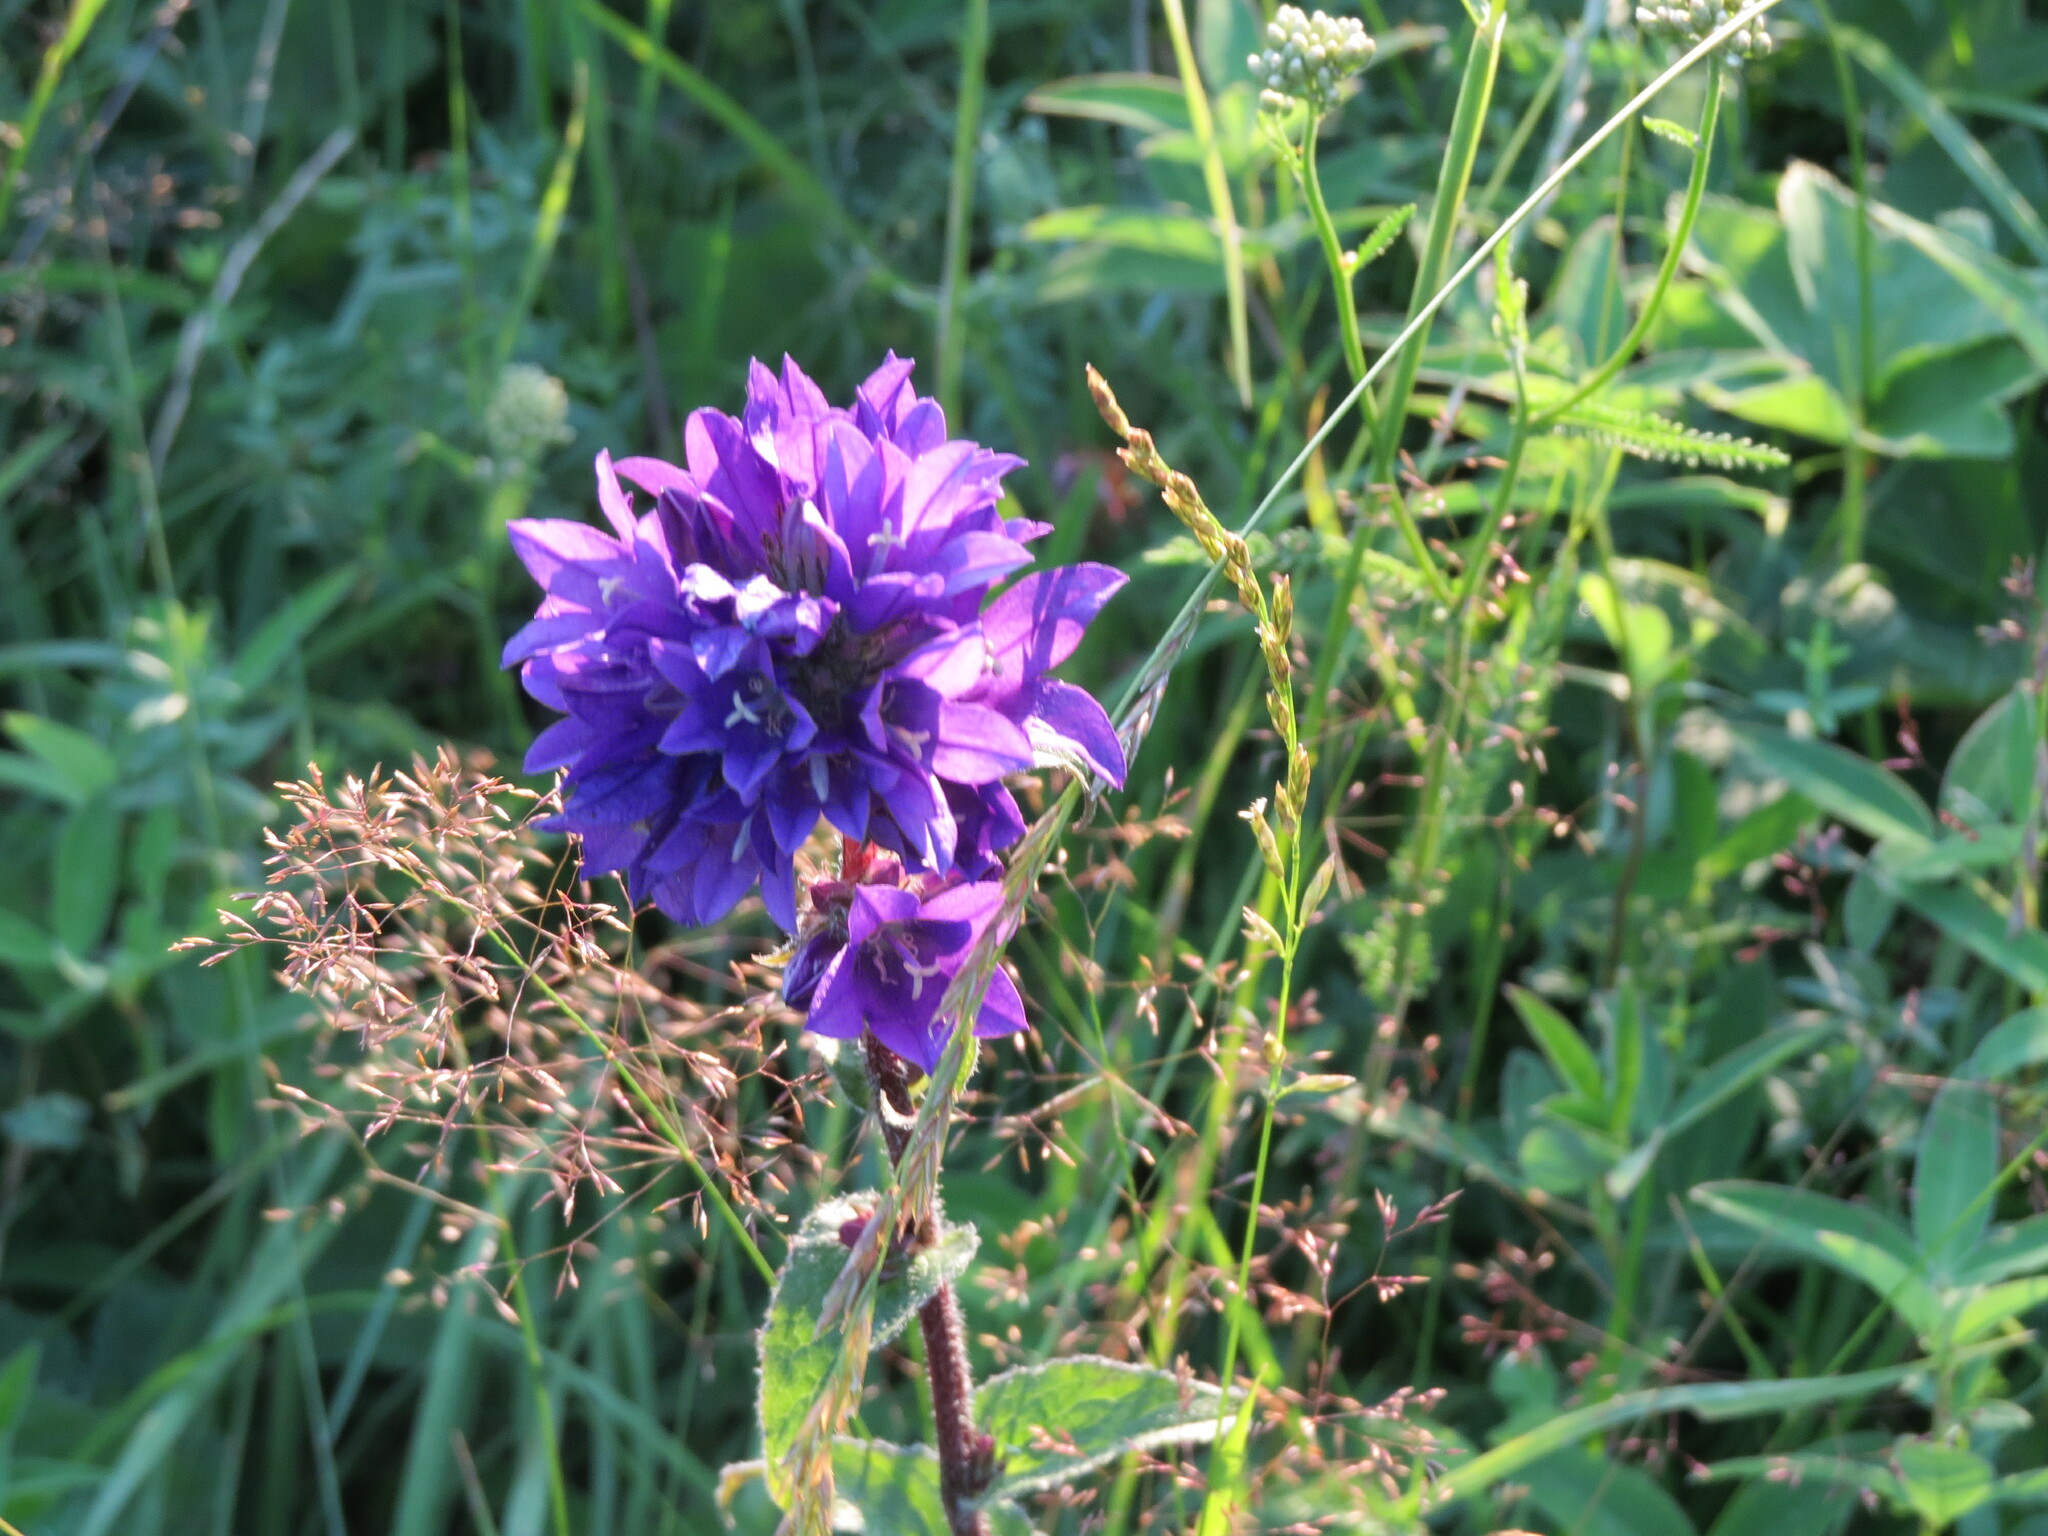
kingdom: Plantae
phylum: Tracheophyta
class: Magnoliopsida
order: Asterales
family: Campanulaceae
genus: Campanula
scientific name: Campanula glomerata
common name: Clustered bellflower
